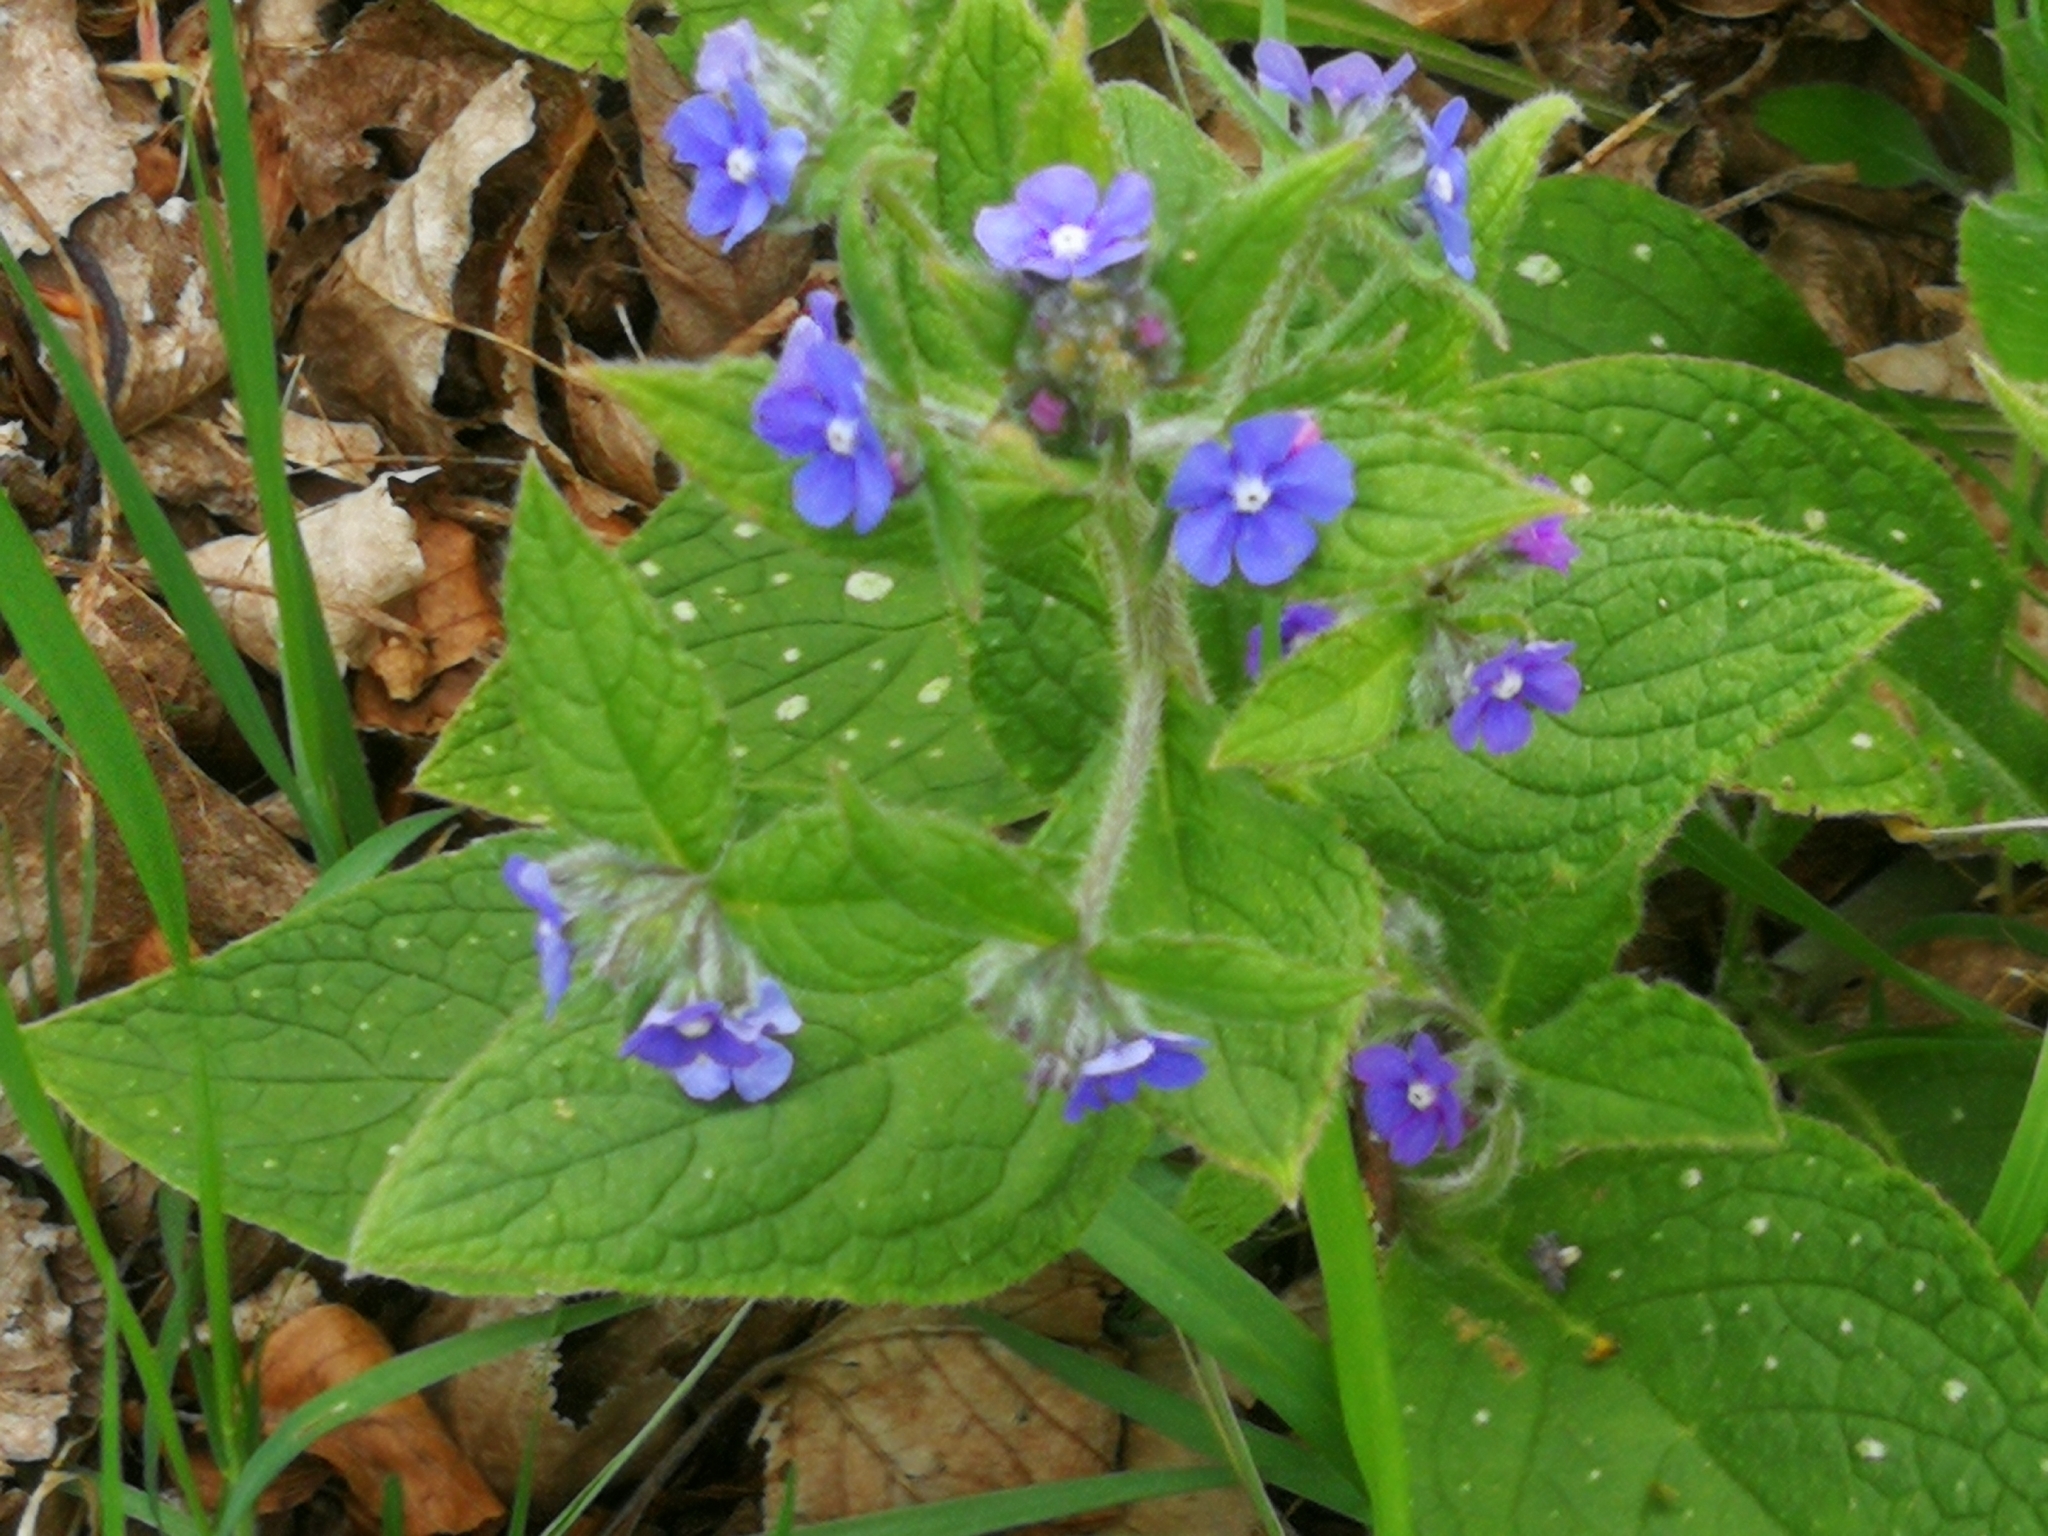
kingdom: Plantae
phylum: Tracheophyta
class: Magnoliopsida
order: Boraginales
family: Boraginaceae
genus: Pentaglottis
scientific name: Pentaglottis sempervirens
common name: Green alkanet
